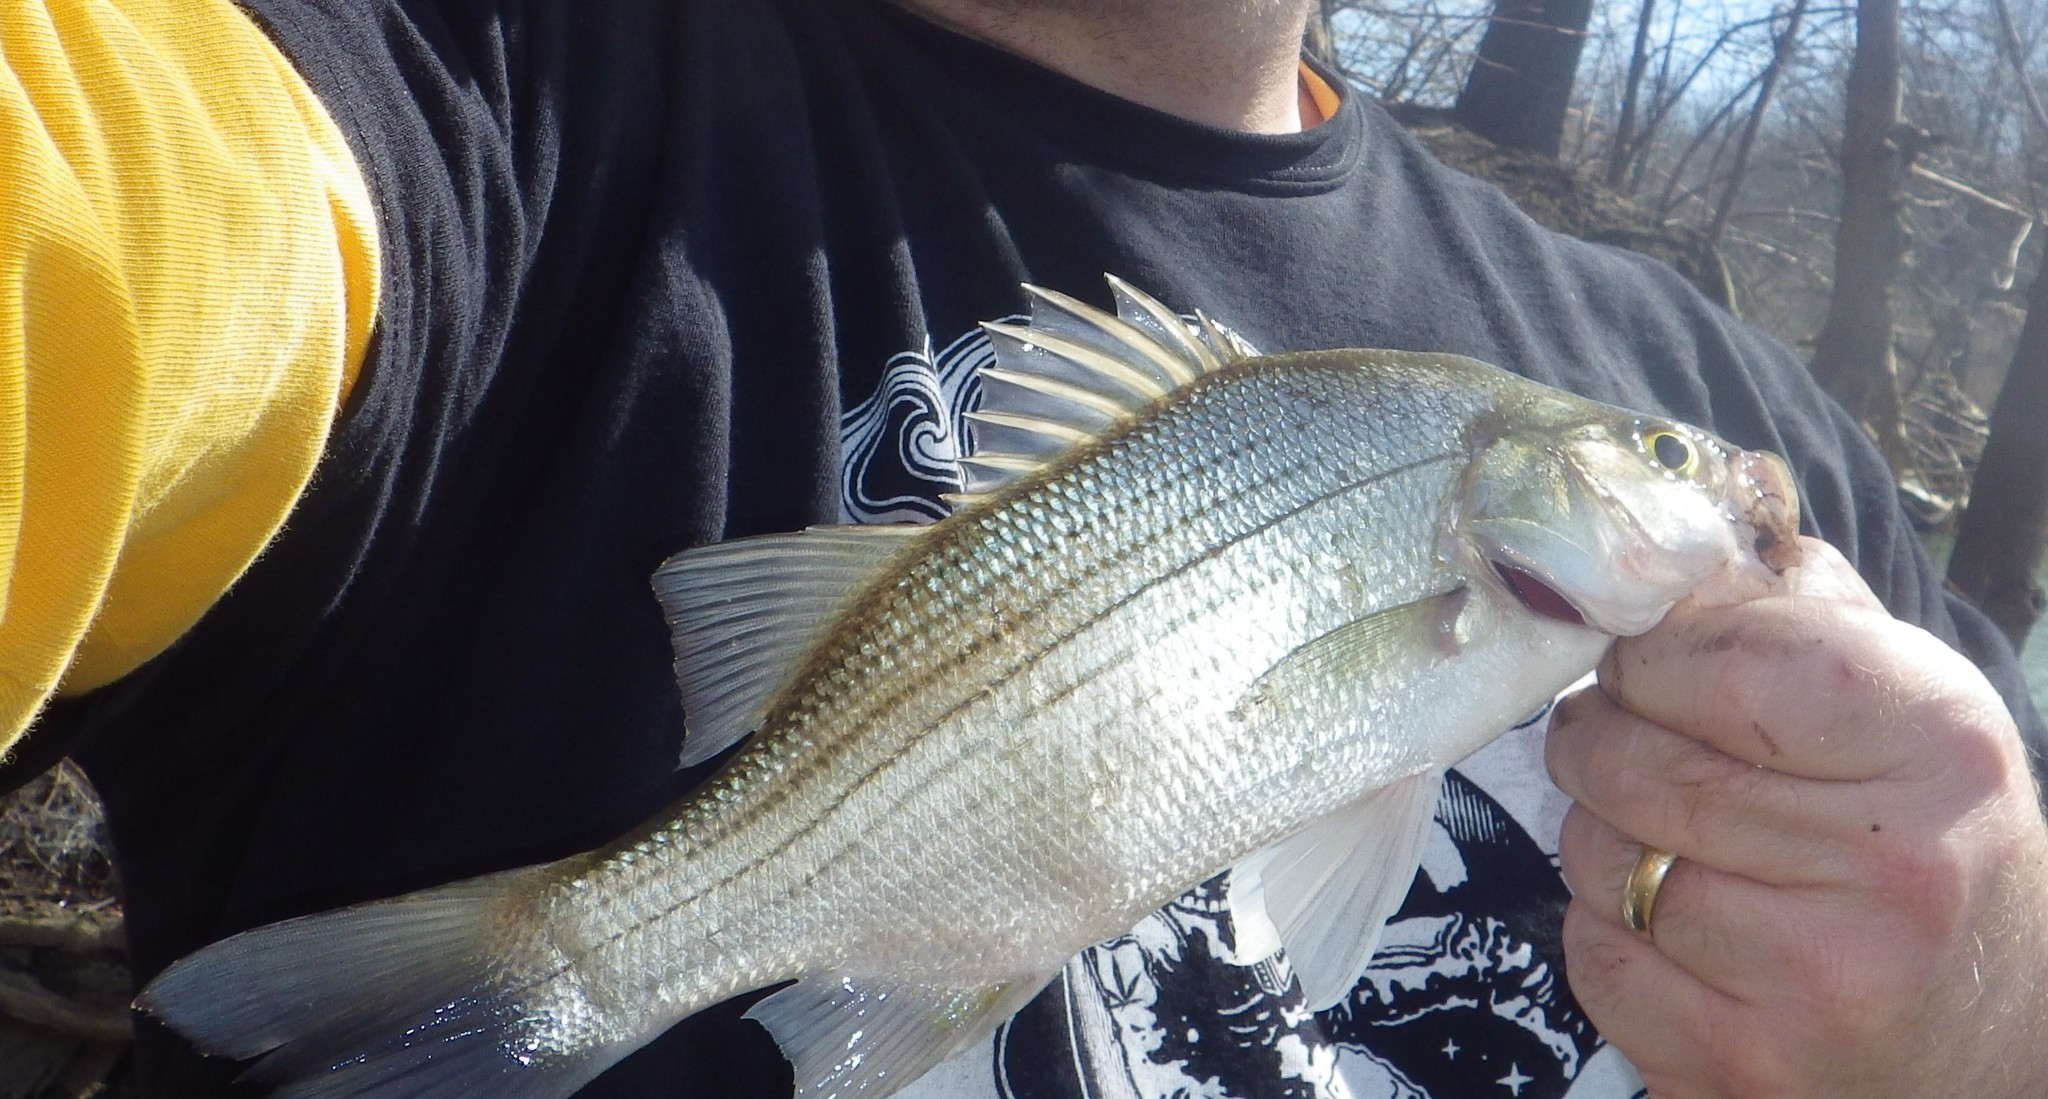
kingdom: Animalia
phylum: Chordata
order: Perciformes
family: Moronidae
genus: Morone
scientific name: Morone chrysops
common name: White bass
